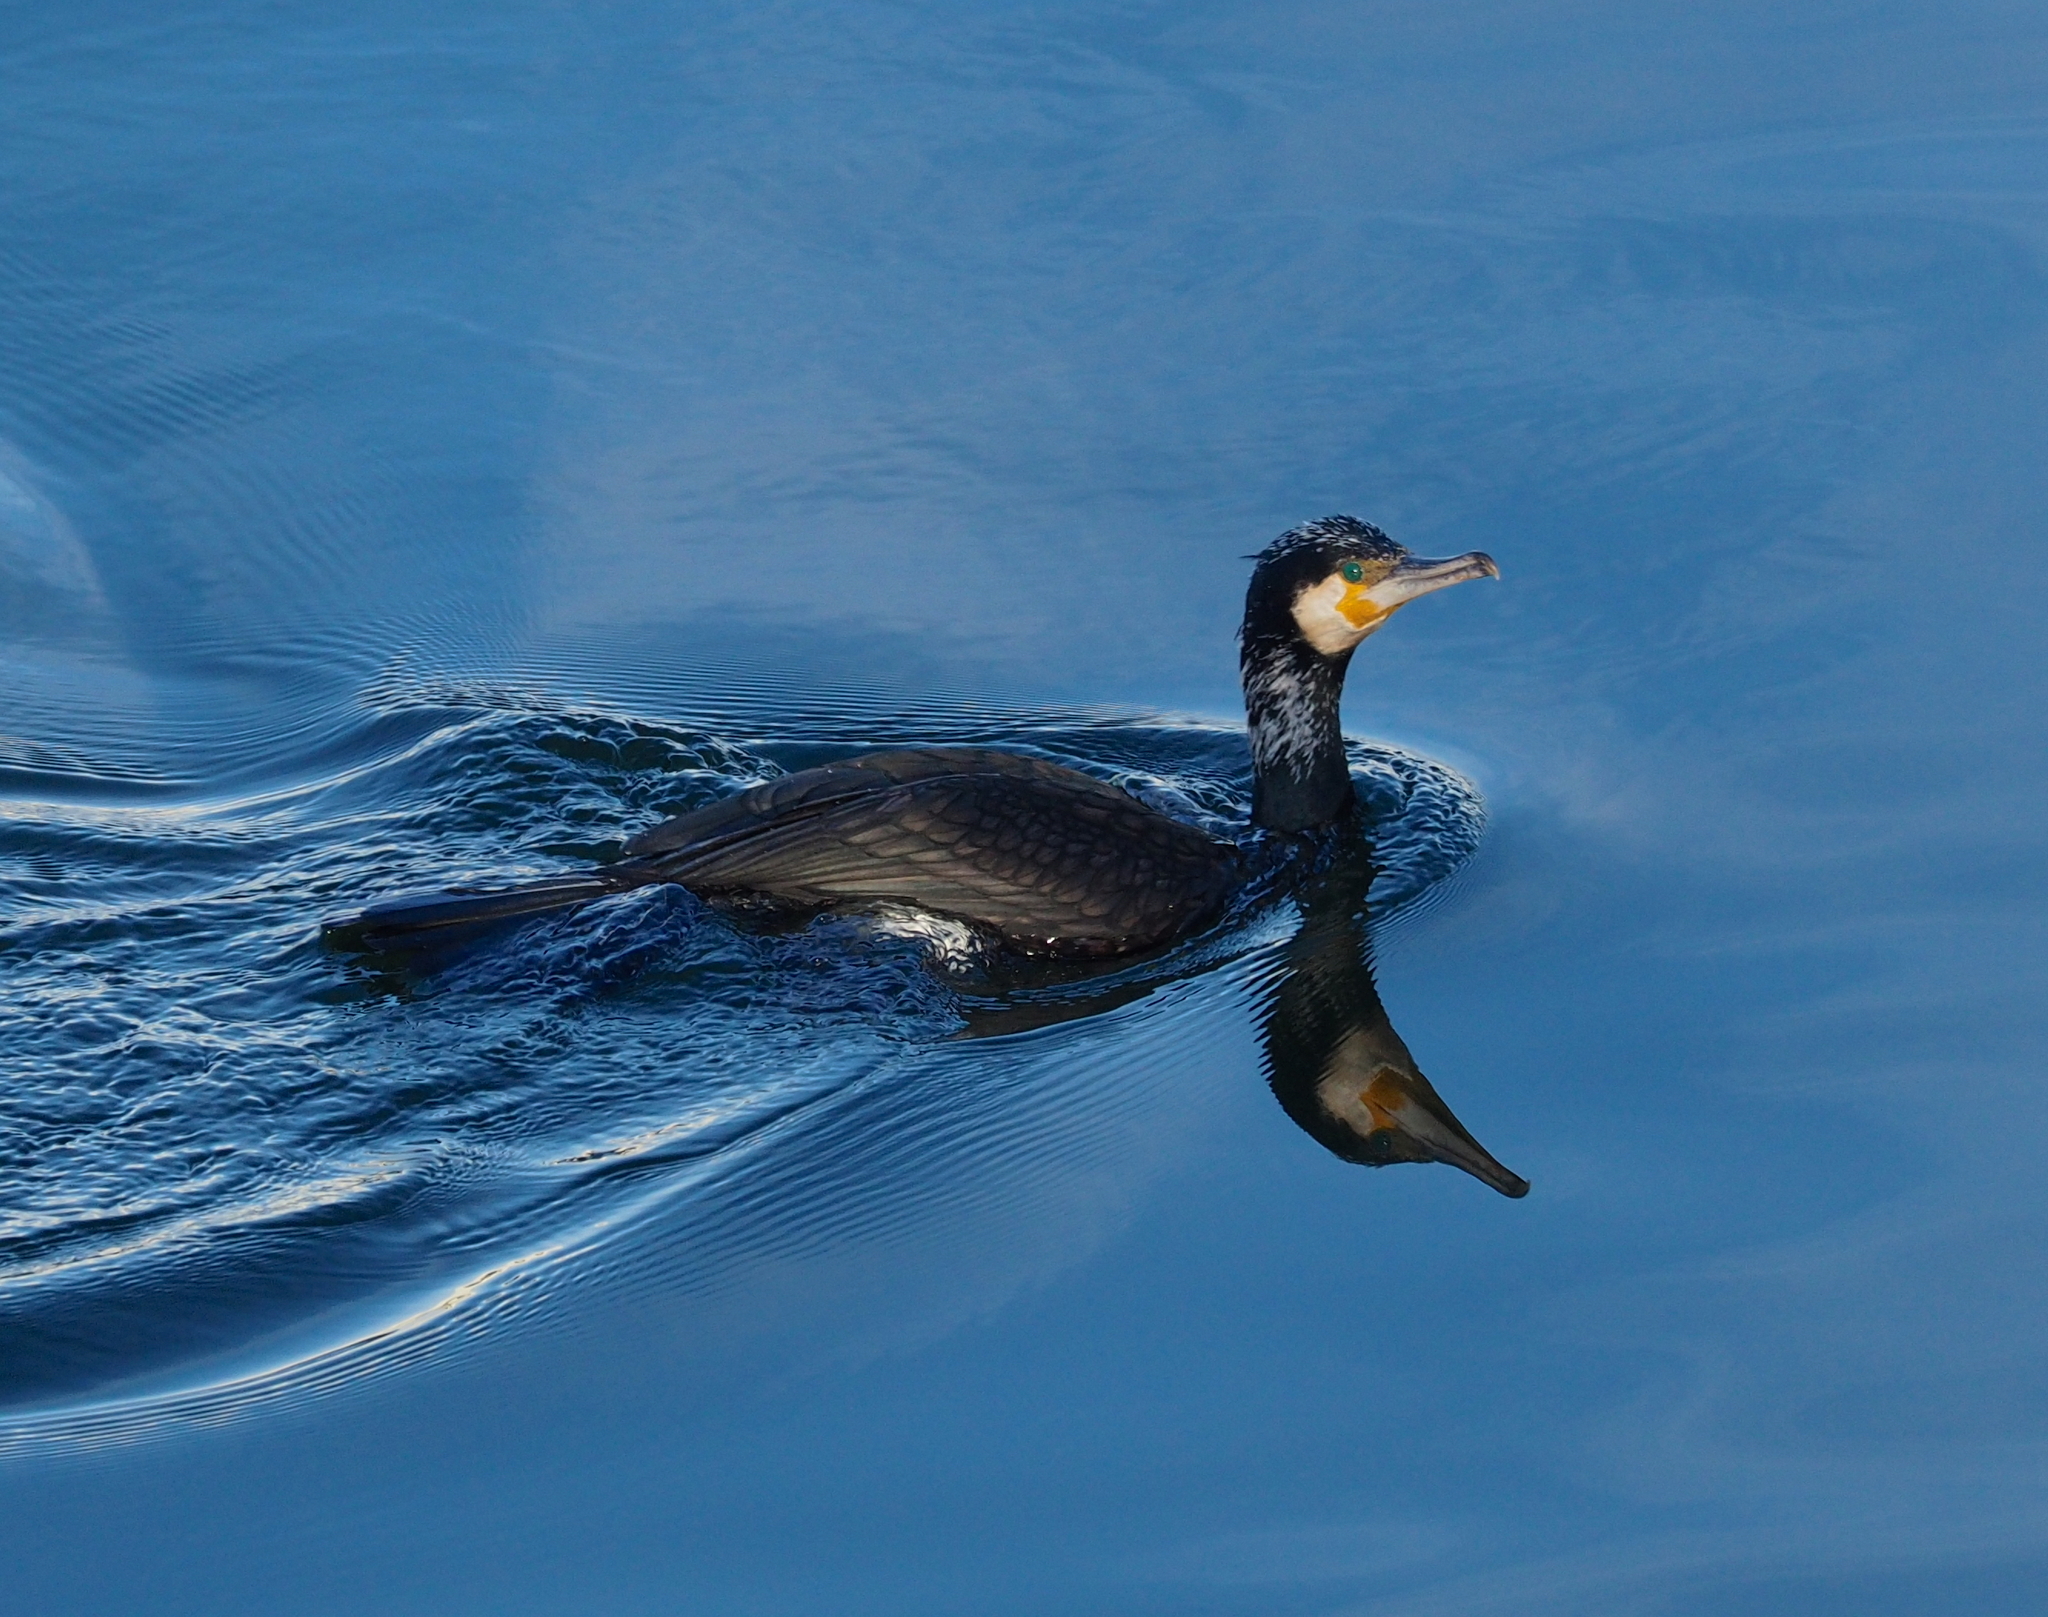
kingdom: Animalia
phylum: Chordata
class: Aves
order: Suliformes
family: Phalacrocoracidae
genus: Phalacrocorax
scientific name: Phalacrocorax carbo
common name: Great cormorant
